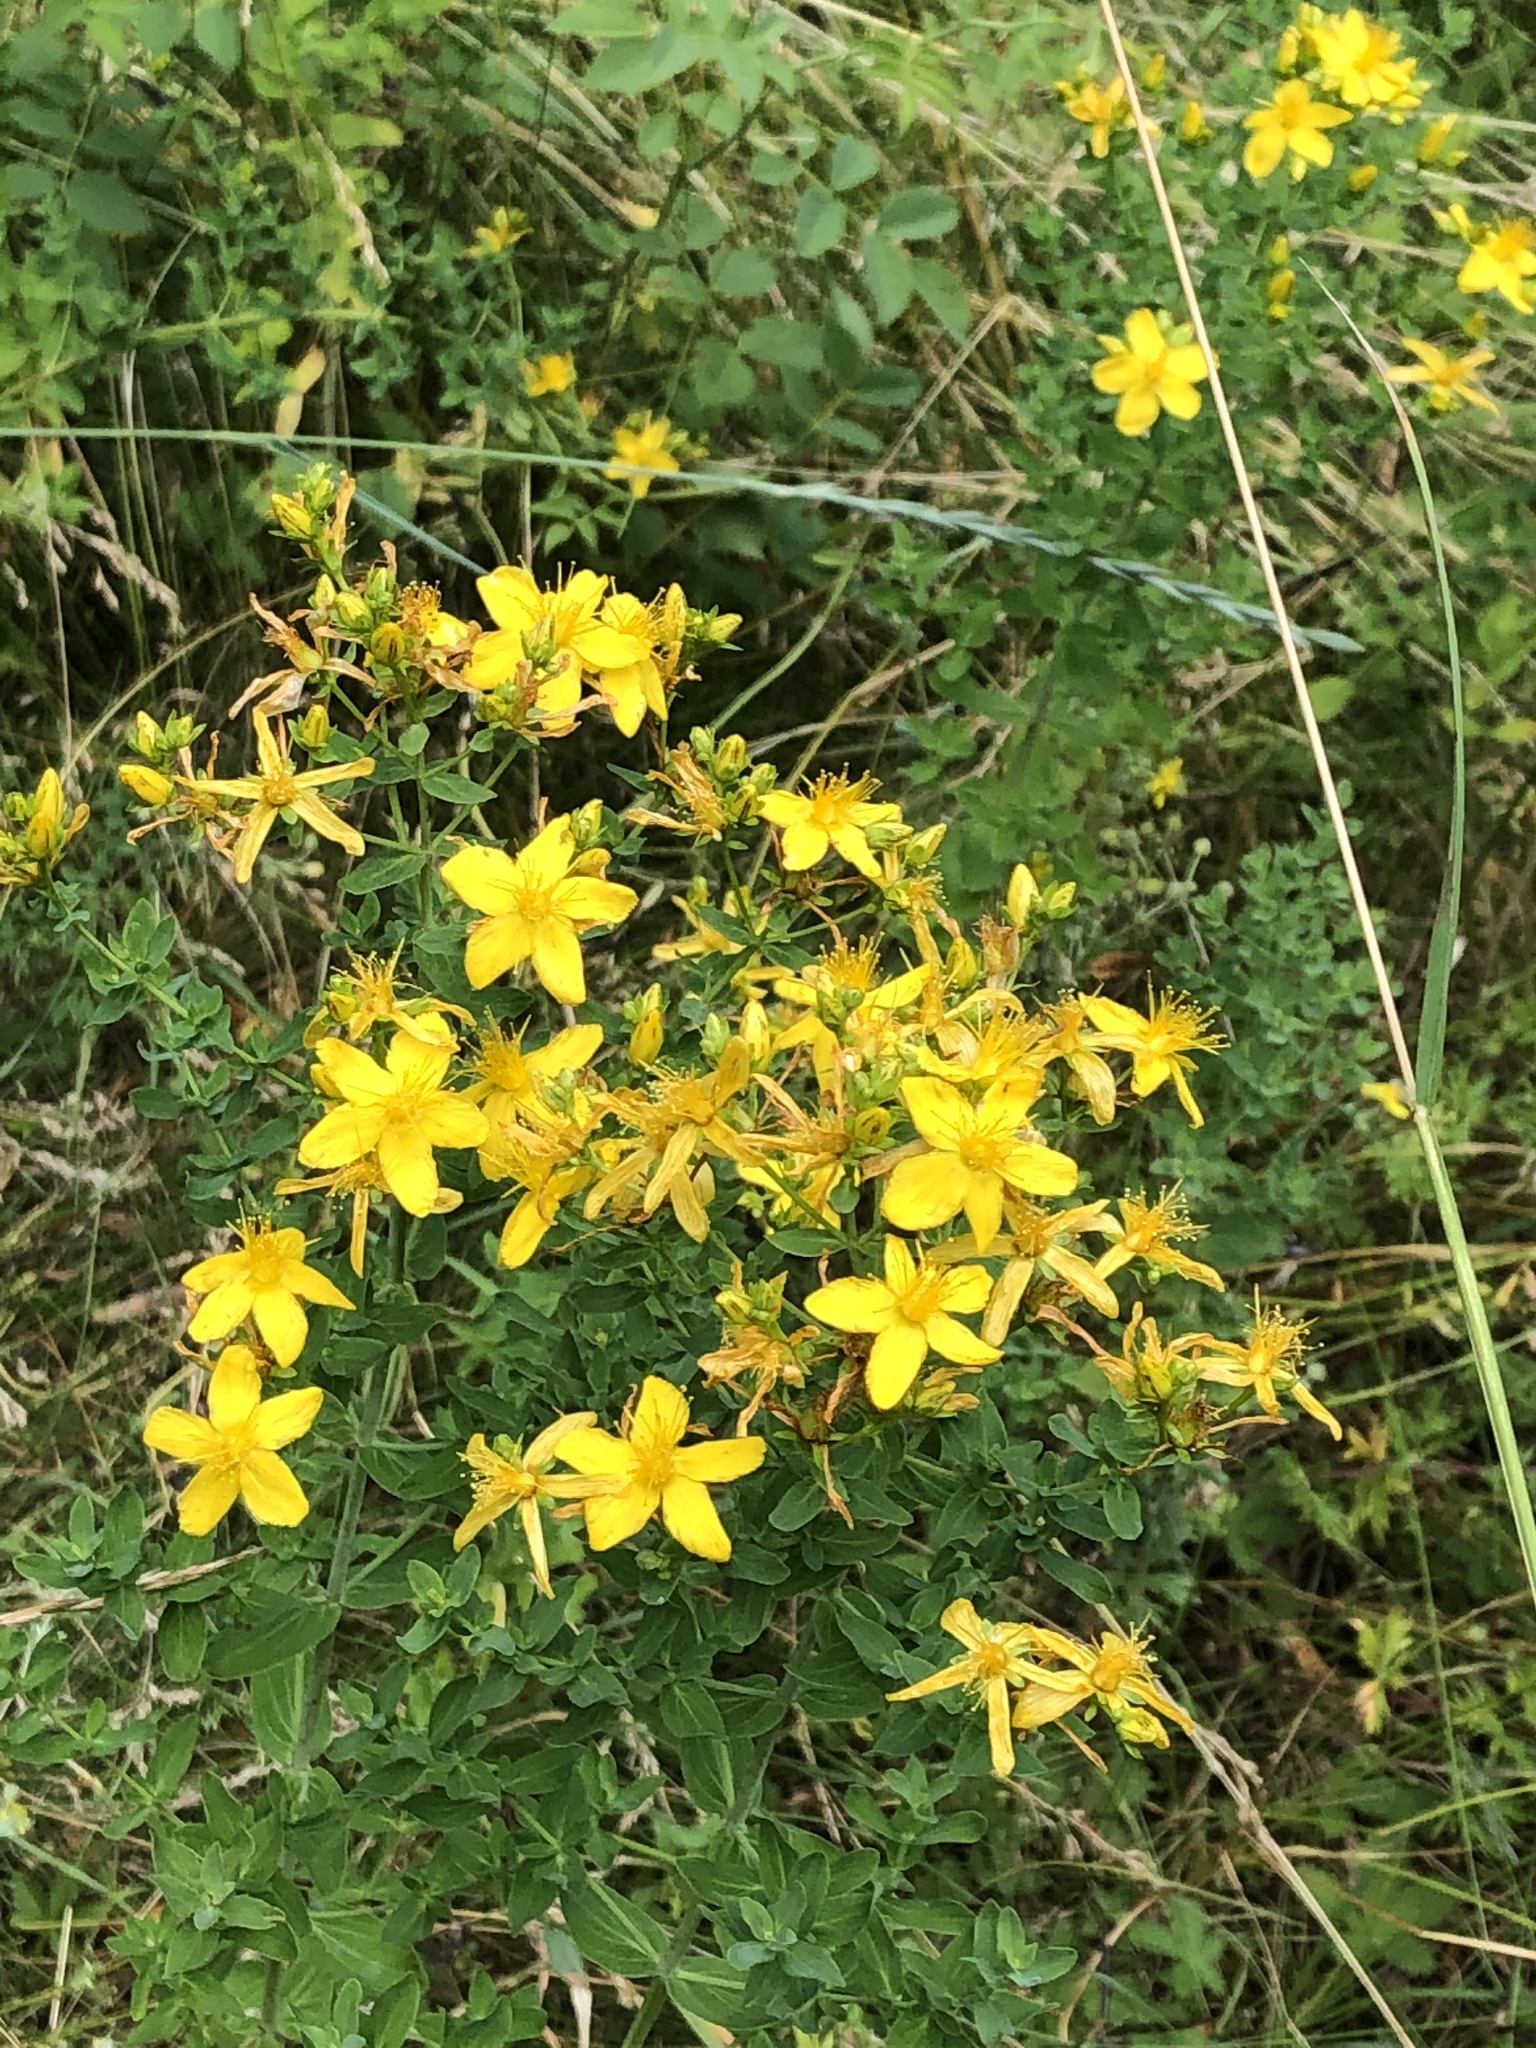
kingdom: Plantae
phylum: Tracheophyta
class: Magnoliopsida
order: Malpighiales
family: Hypericaceae
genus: Hypericum
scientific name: Hypericum perforatum
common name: Common st. johnswort
